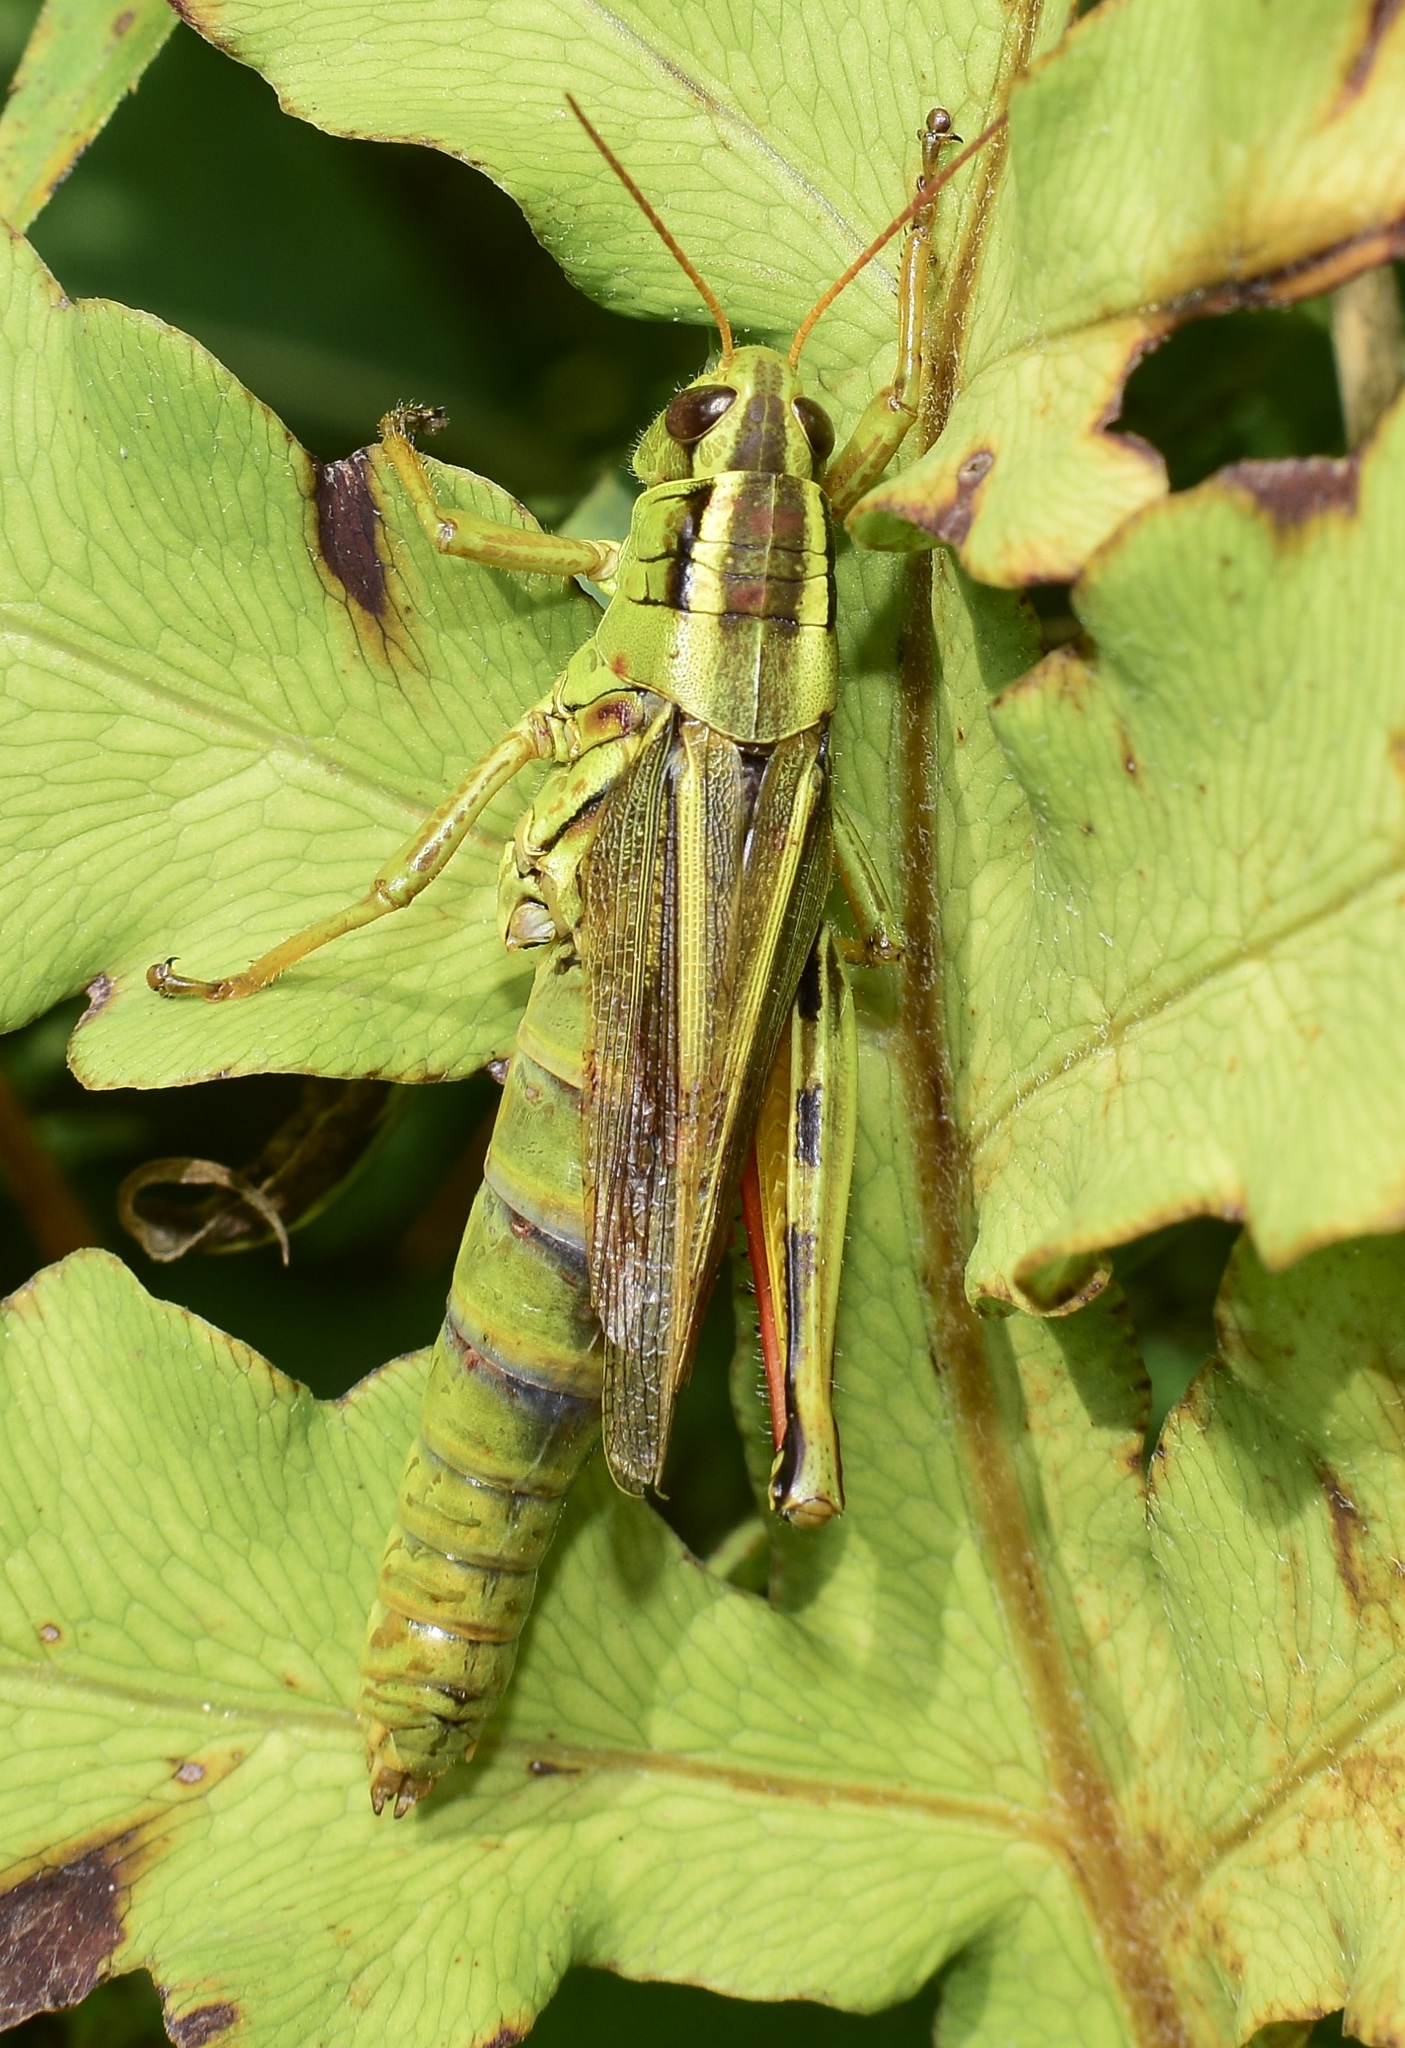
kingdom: Animalia
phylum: Arthropoda
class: Insecta
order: Orthoptera
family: Acrididae
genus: Melanoplus
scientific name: Melanoplus bivittatus
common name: Two-striped grasshopper
